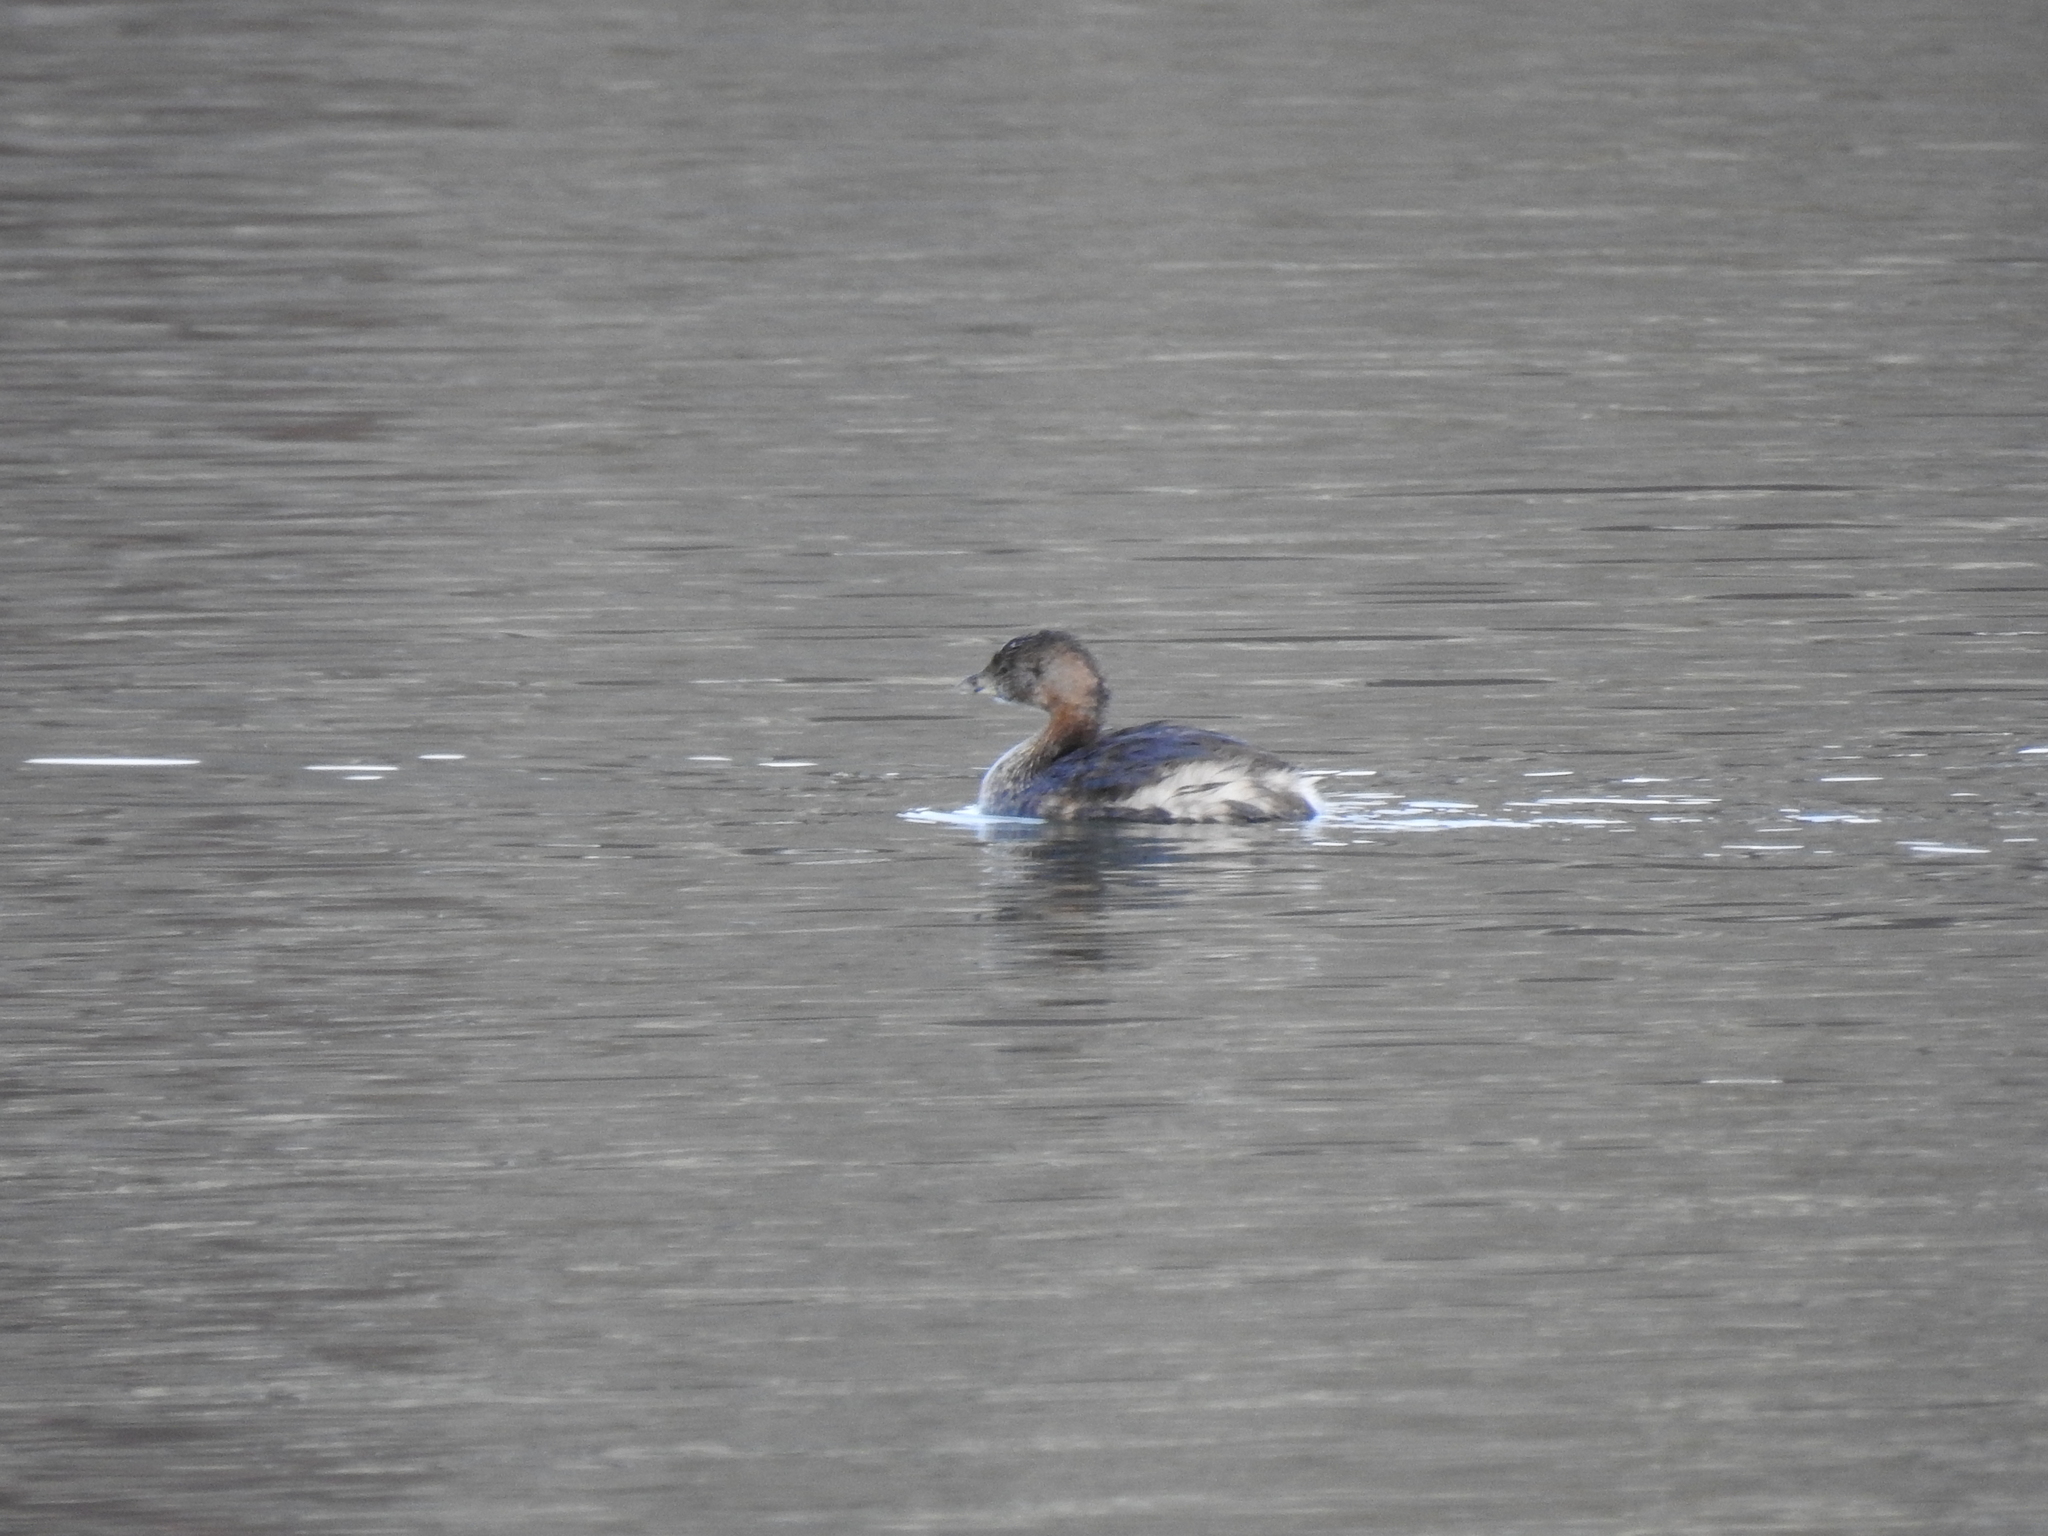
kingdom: Animalia
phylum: Chordata
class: Aves
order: Podicipediformes
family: Podicipedidae
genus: Podilymbus
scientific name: Podilymbus podiceps
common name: Pied-billed grebe
